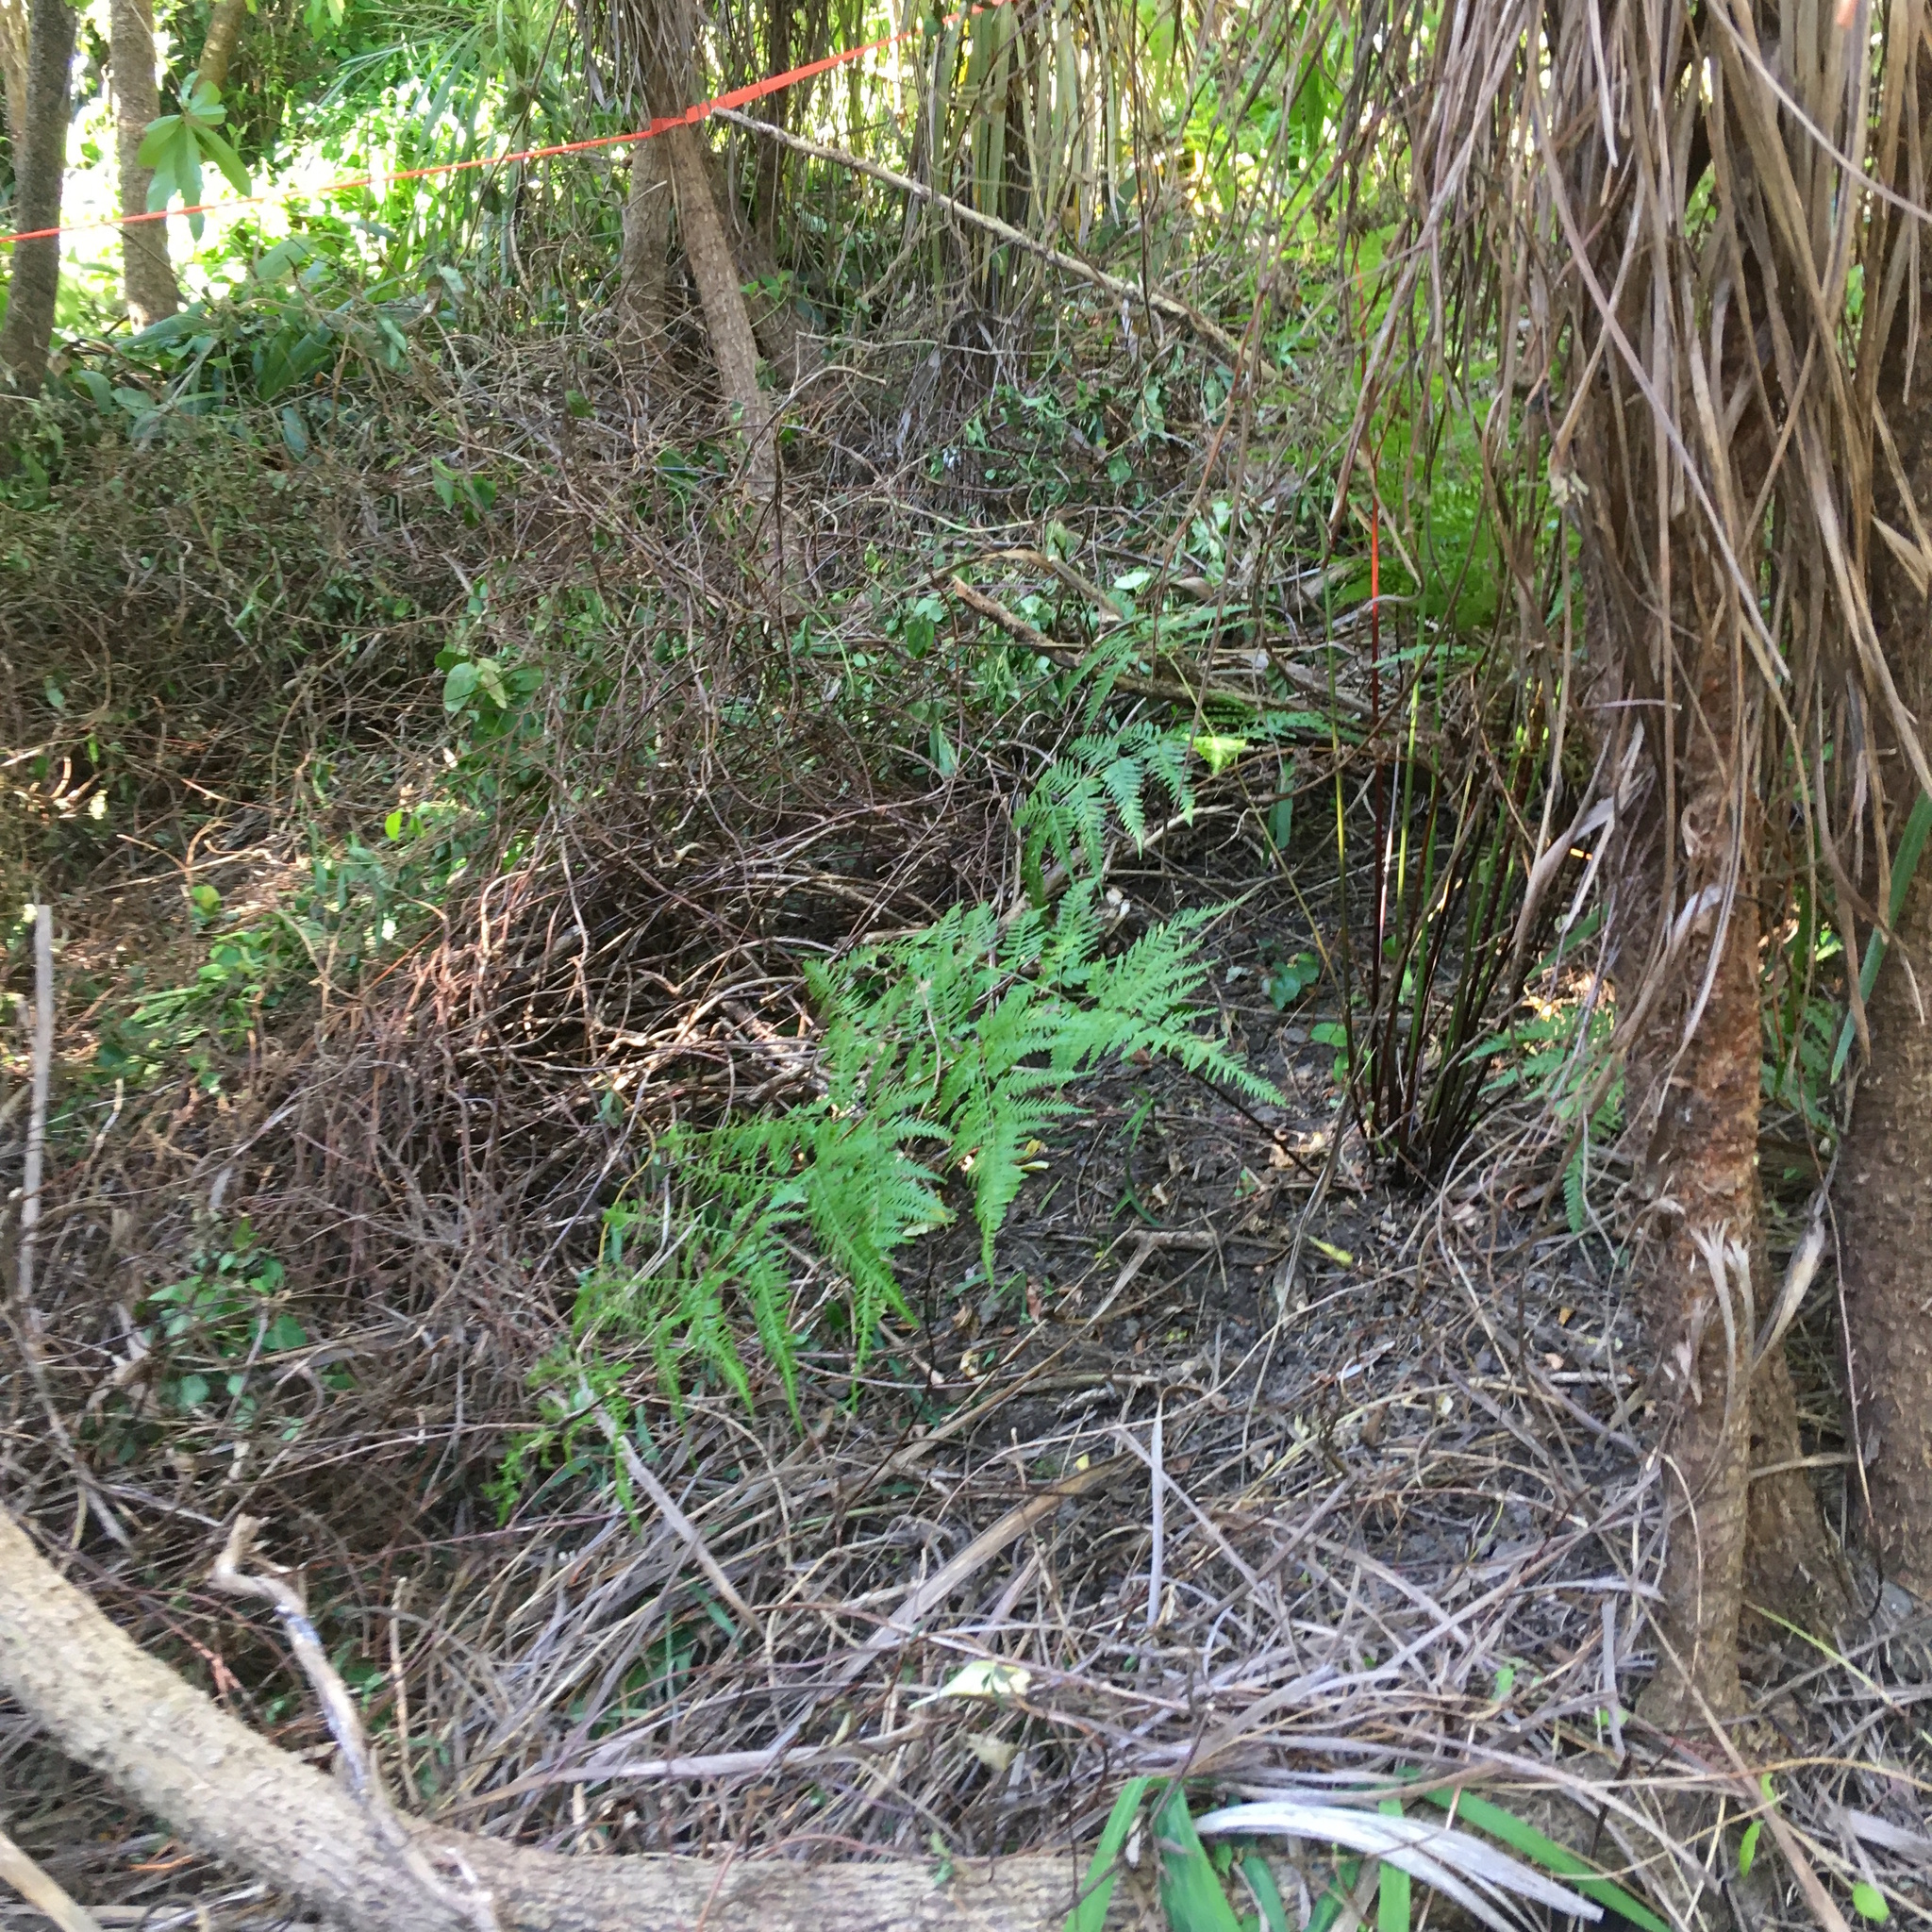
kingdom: Plantae
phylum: Tracheophyta
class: Polypodiopsida
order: Polypodiales
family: Pteridaceae
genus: Pteris
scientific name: Pteris tremula
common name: Australian brake
